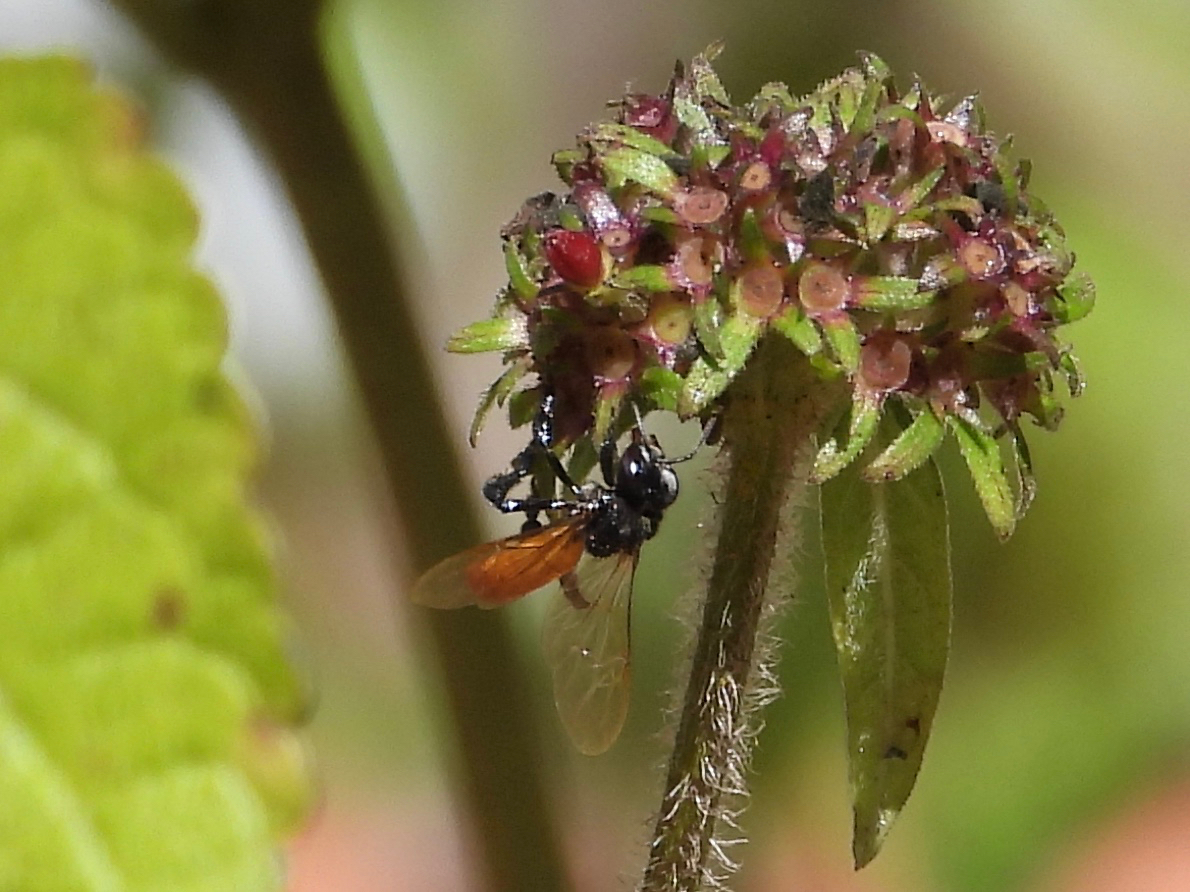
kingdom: Animalia
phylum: Arthropoda
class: Insecta
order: Hymenoptera
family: Apidae
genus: Trigona
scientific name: Trigona fulviventris
